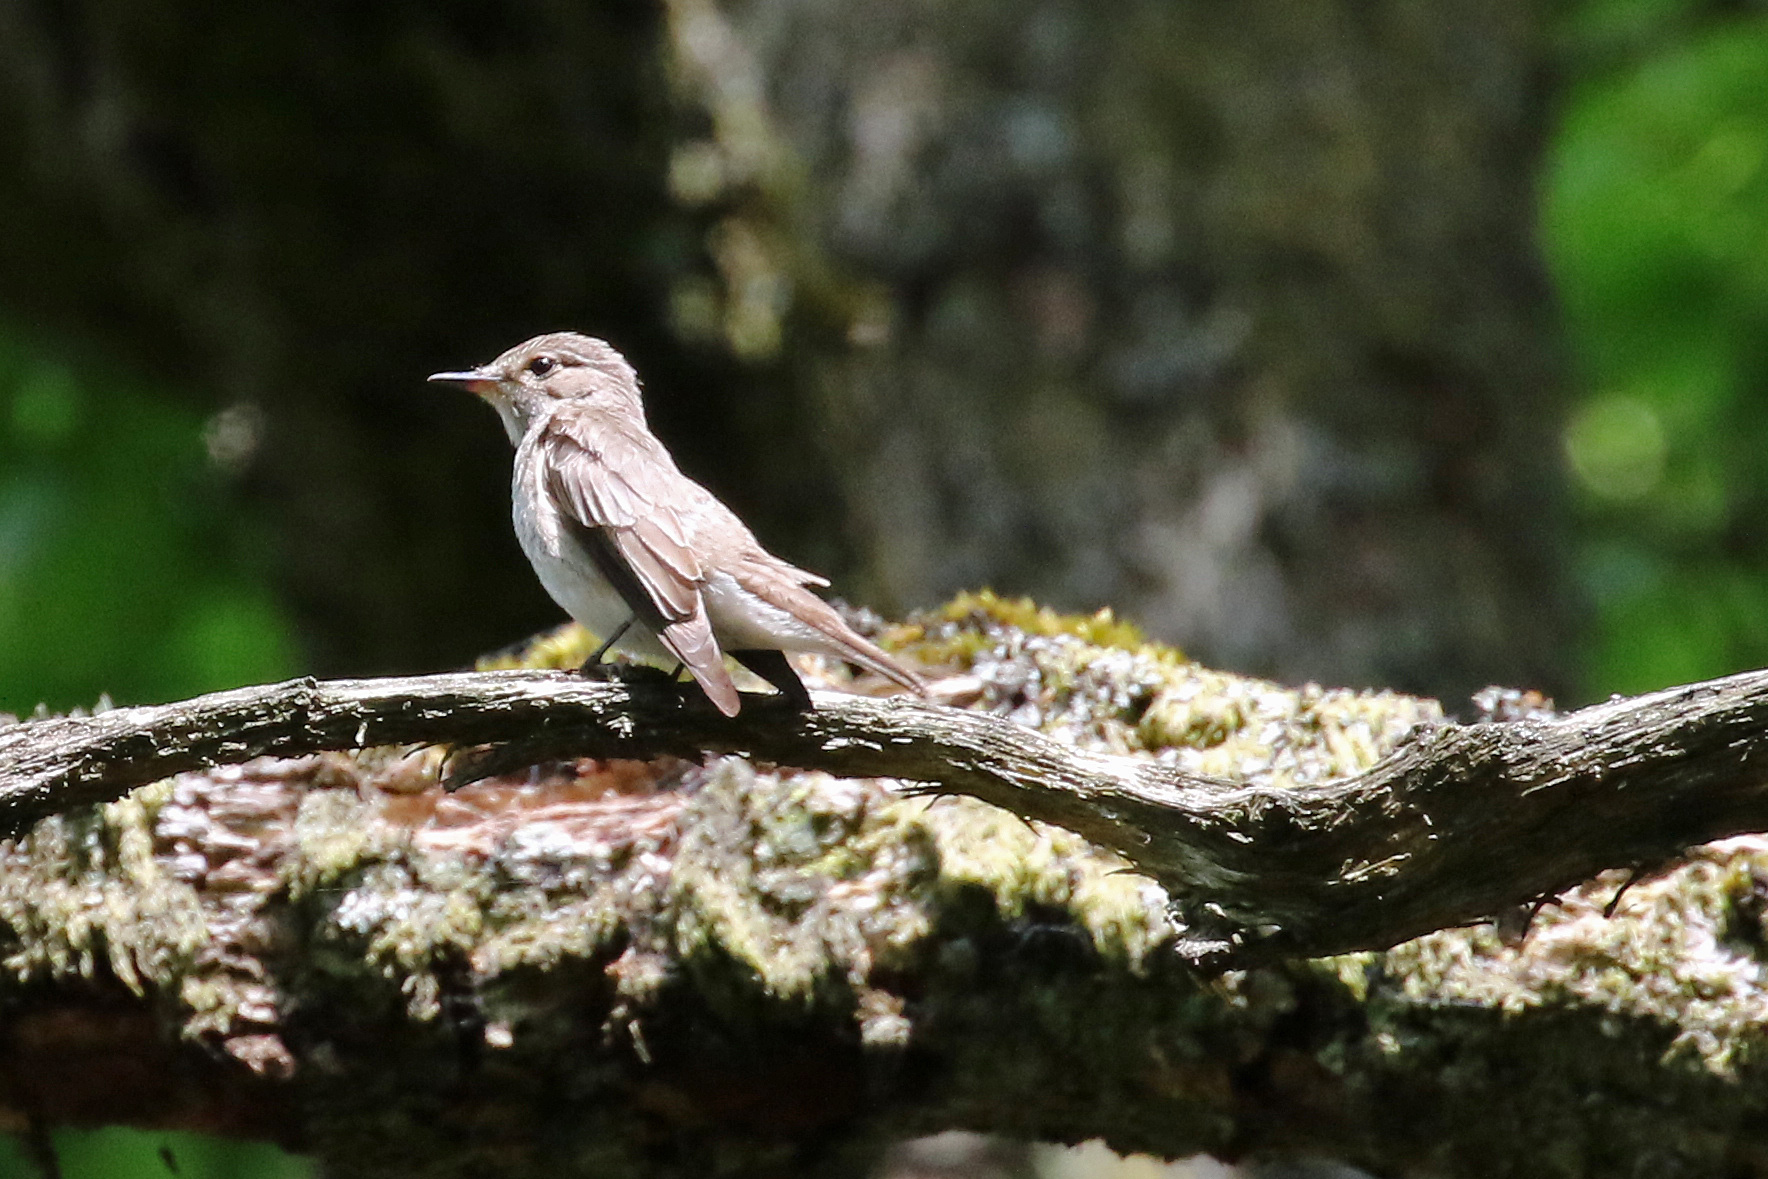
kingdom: Animalia
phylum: Chordata
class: Aves
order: Passeriformes
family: Muscicapidae
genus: Muscicapa
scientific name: Muscicapa striata
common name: Spotted flycatcher
